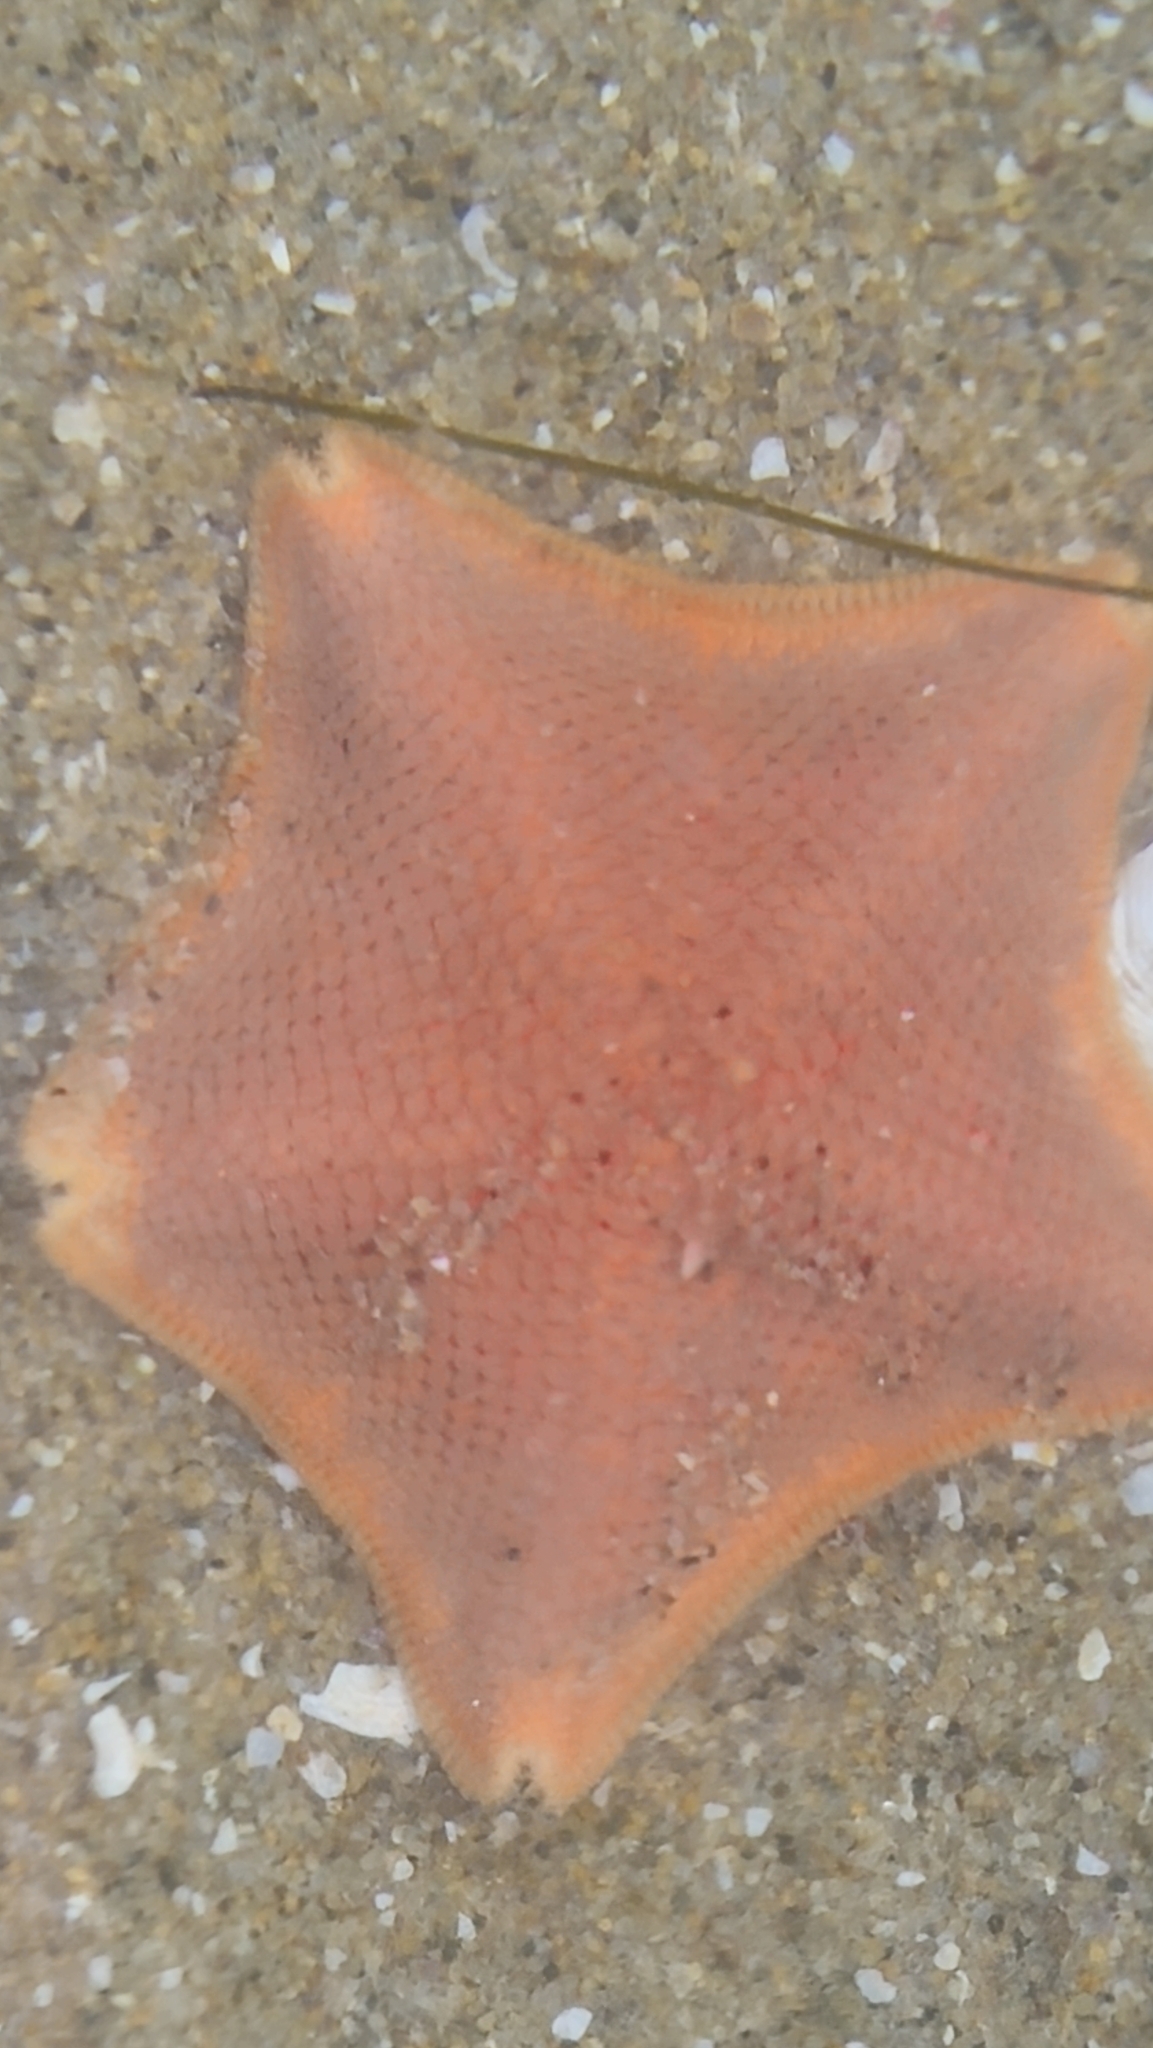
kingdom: Animalia
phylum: Echinodermata
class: Asteroidea
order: Valvatida
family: Asterinidae
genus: Patiria
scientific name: Patiria miniata
